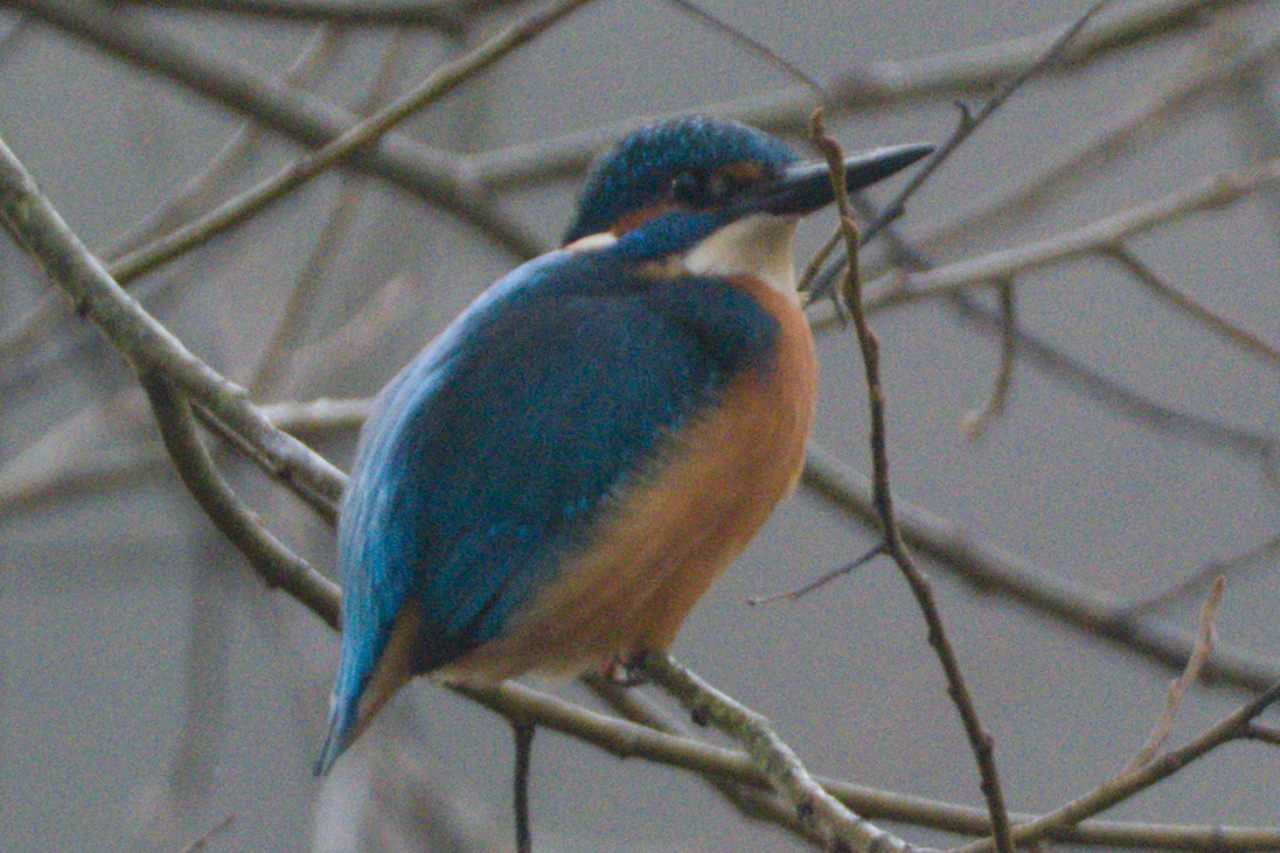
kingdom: Animalia
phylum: Chordata
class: Aves
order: Coraciiformes
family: Alcedinidae
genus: Alcedo
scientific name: Alcedo atthis
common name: Common kingfisher
